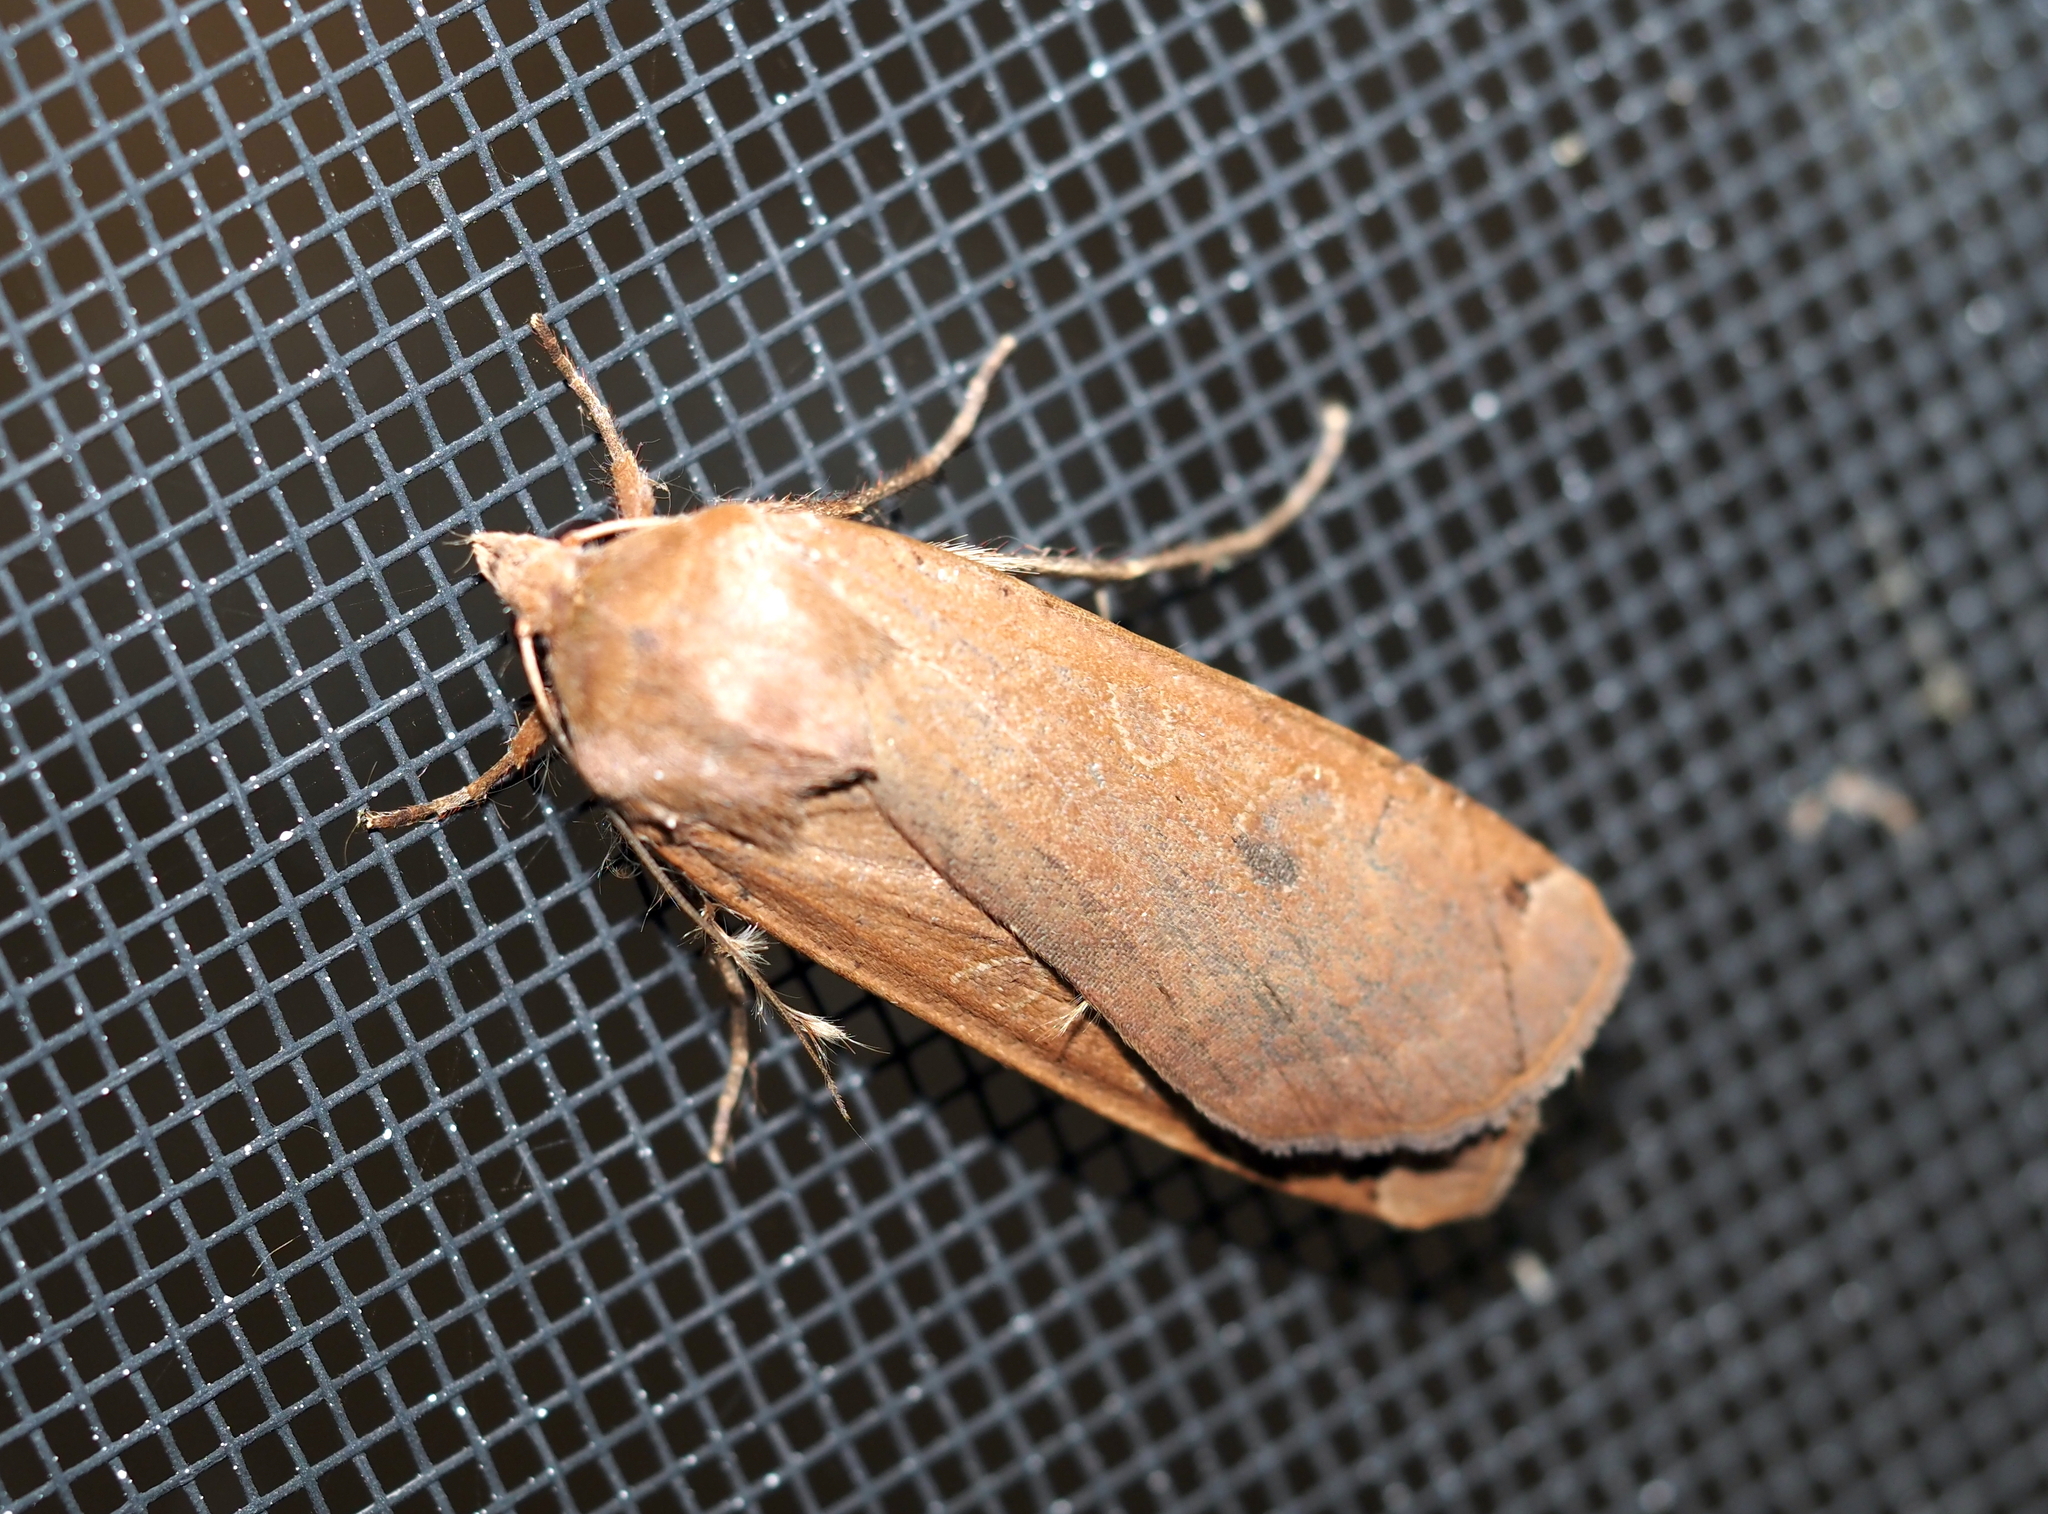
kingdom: Animalia
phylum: Arthropoda
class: Insecta
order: Lepidoptera
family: Noctuidae
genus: Noctua
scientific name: Noctua pronuba
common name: Large yellow underwing
